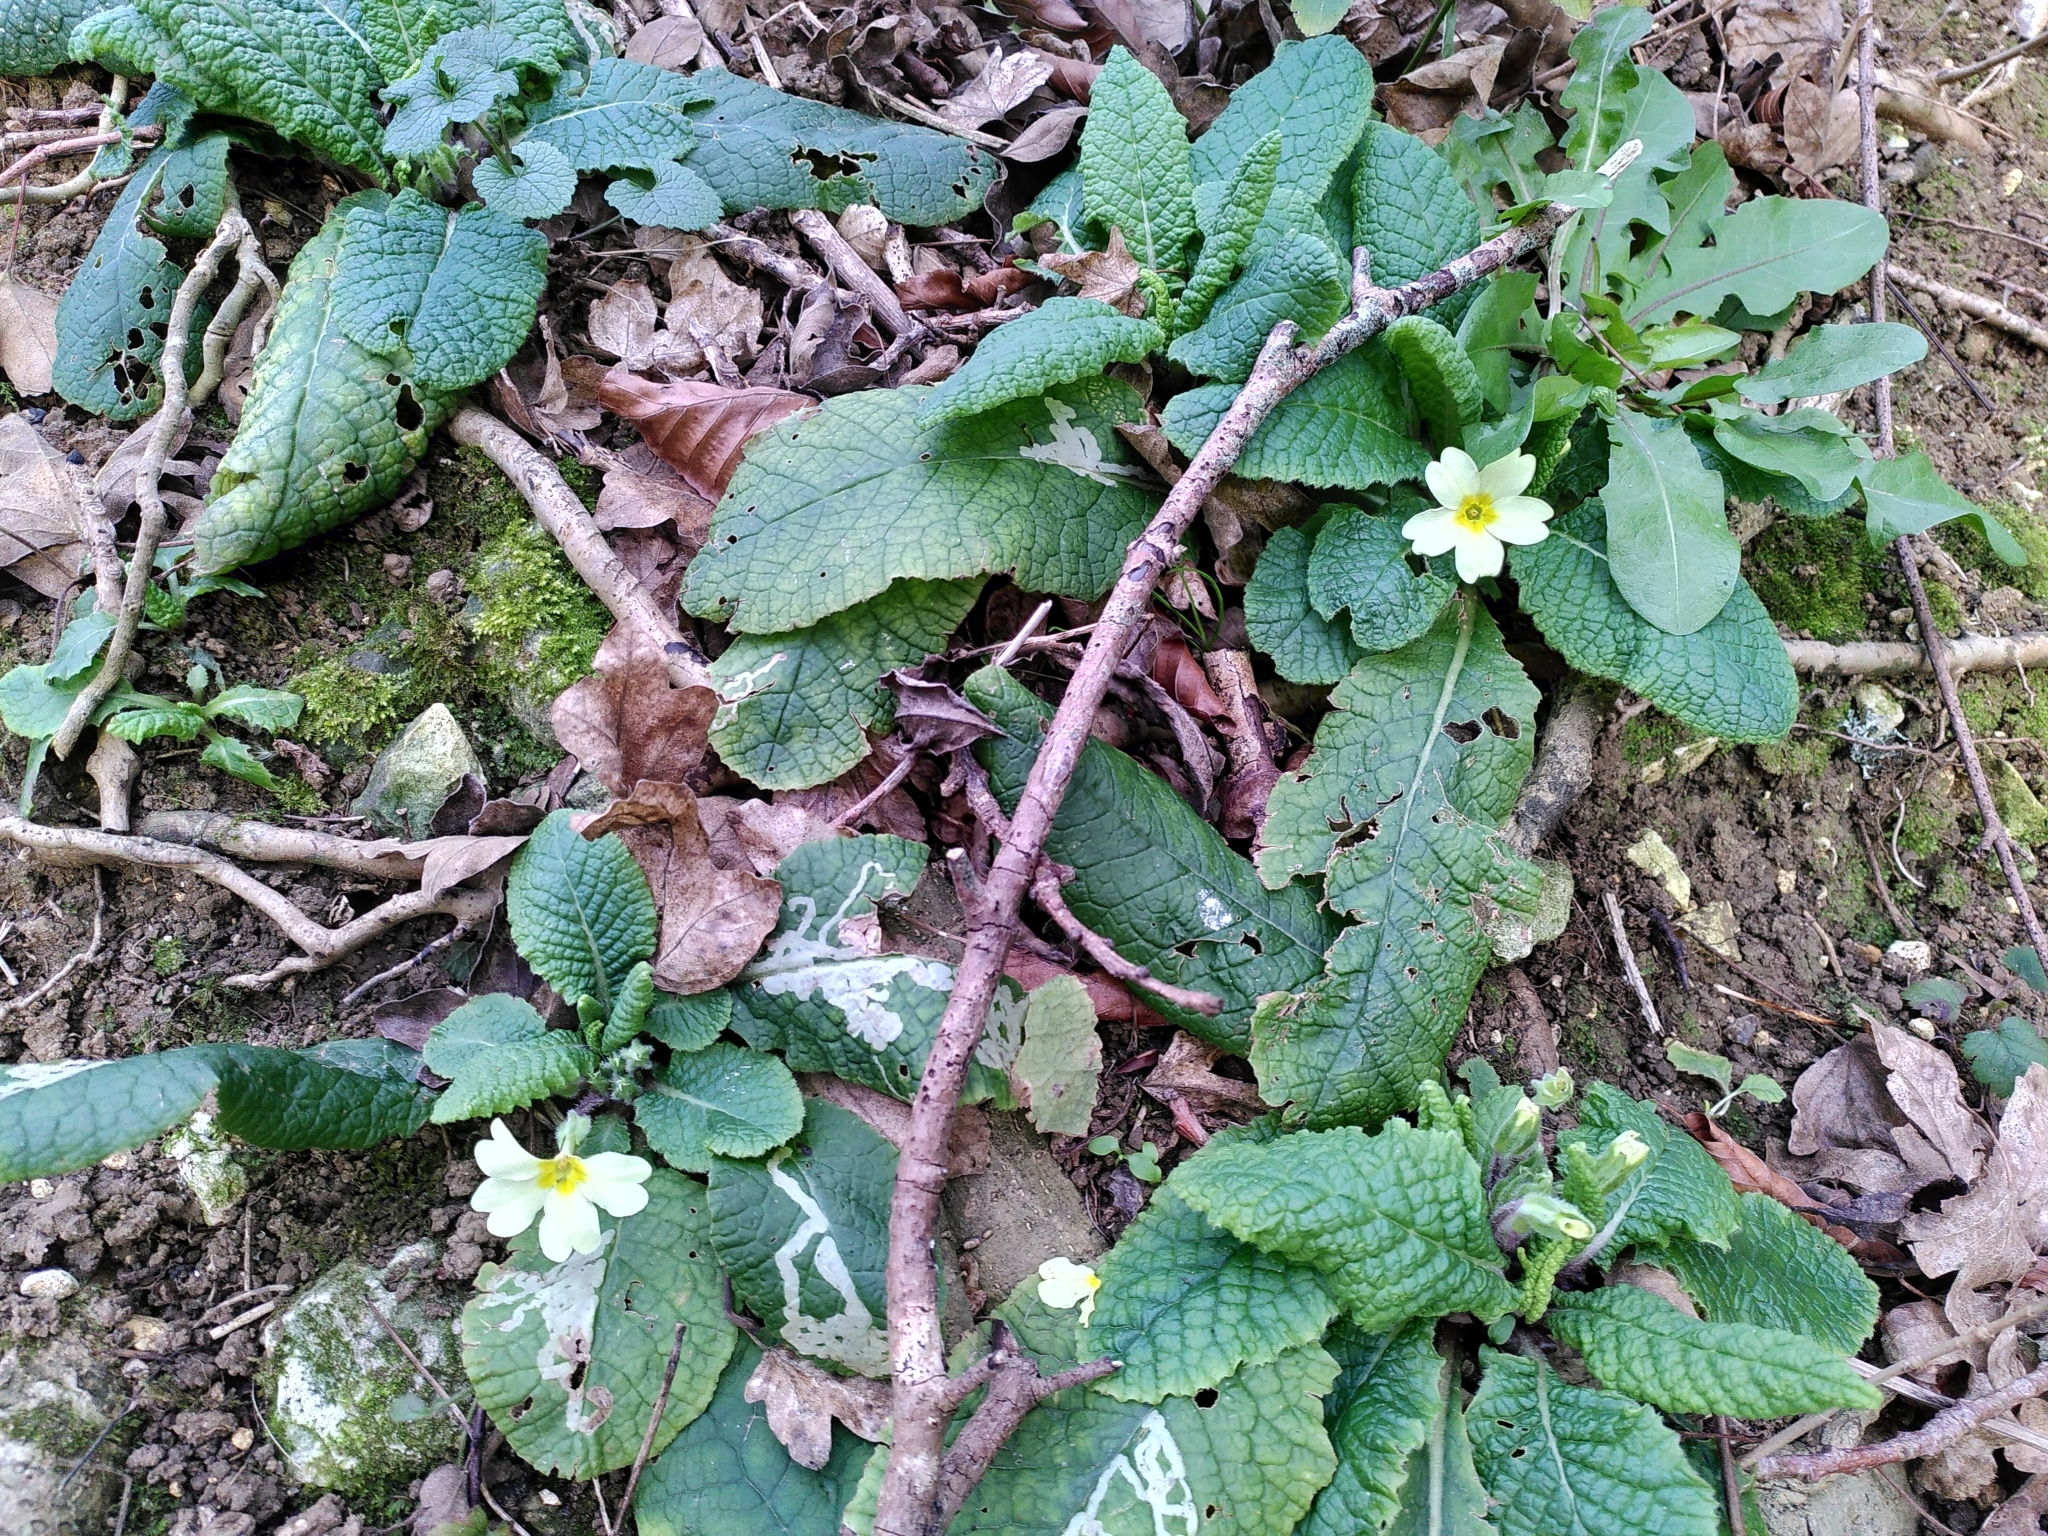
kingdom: Plantae
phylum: Tracheophyta
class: Magnoliopsida
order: Ericales
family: Primulaceae
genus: Primula
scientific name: Primula vulgaris
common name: Primrose
